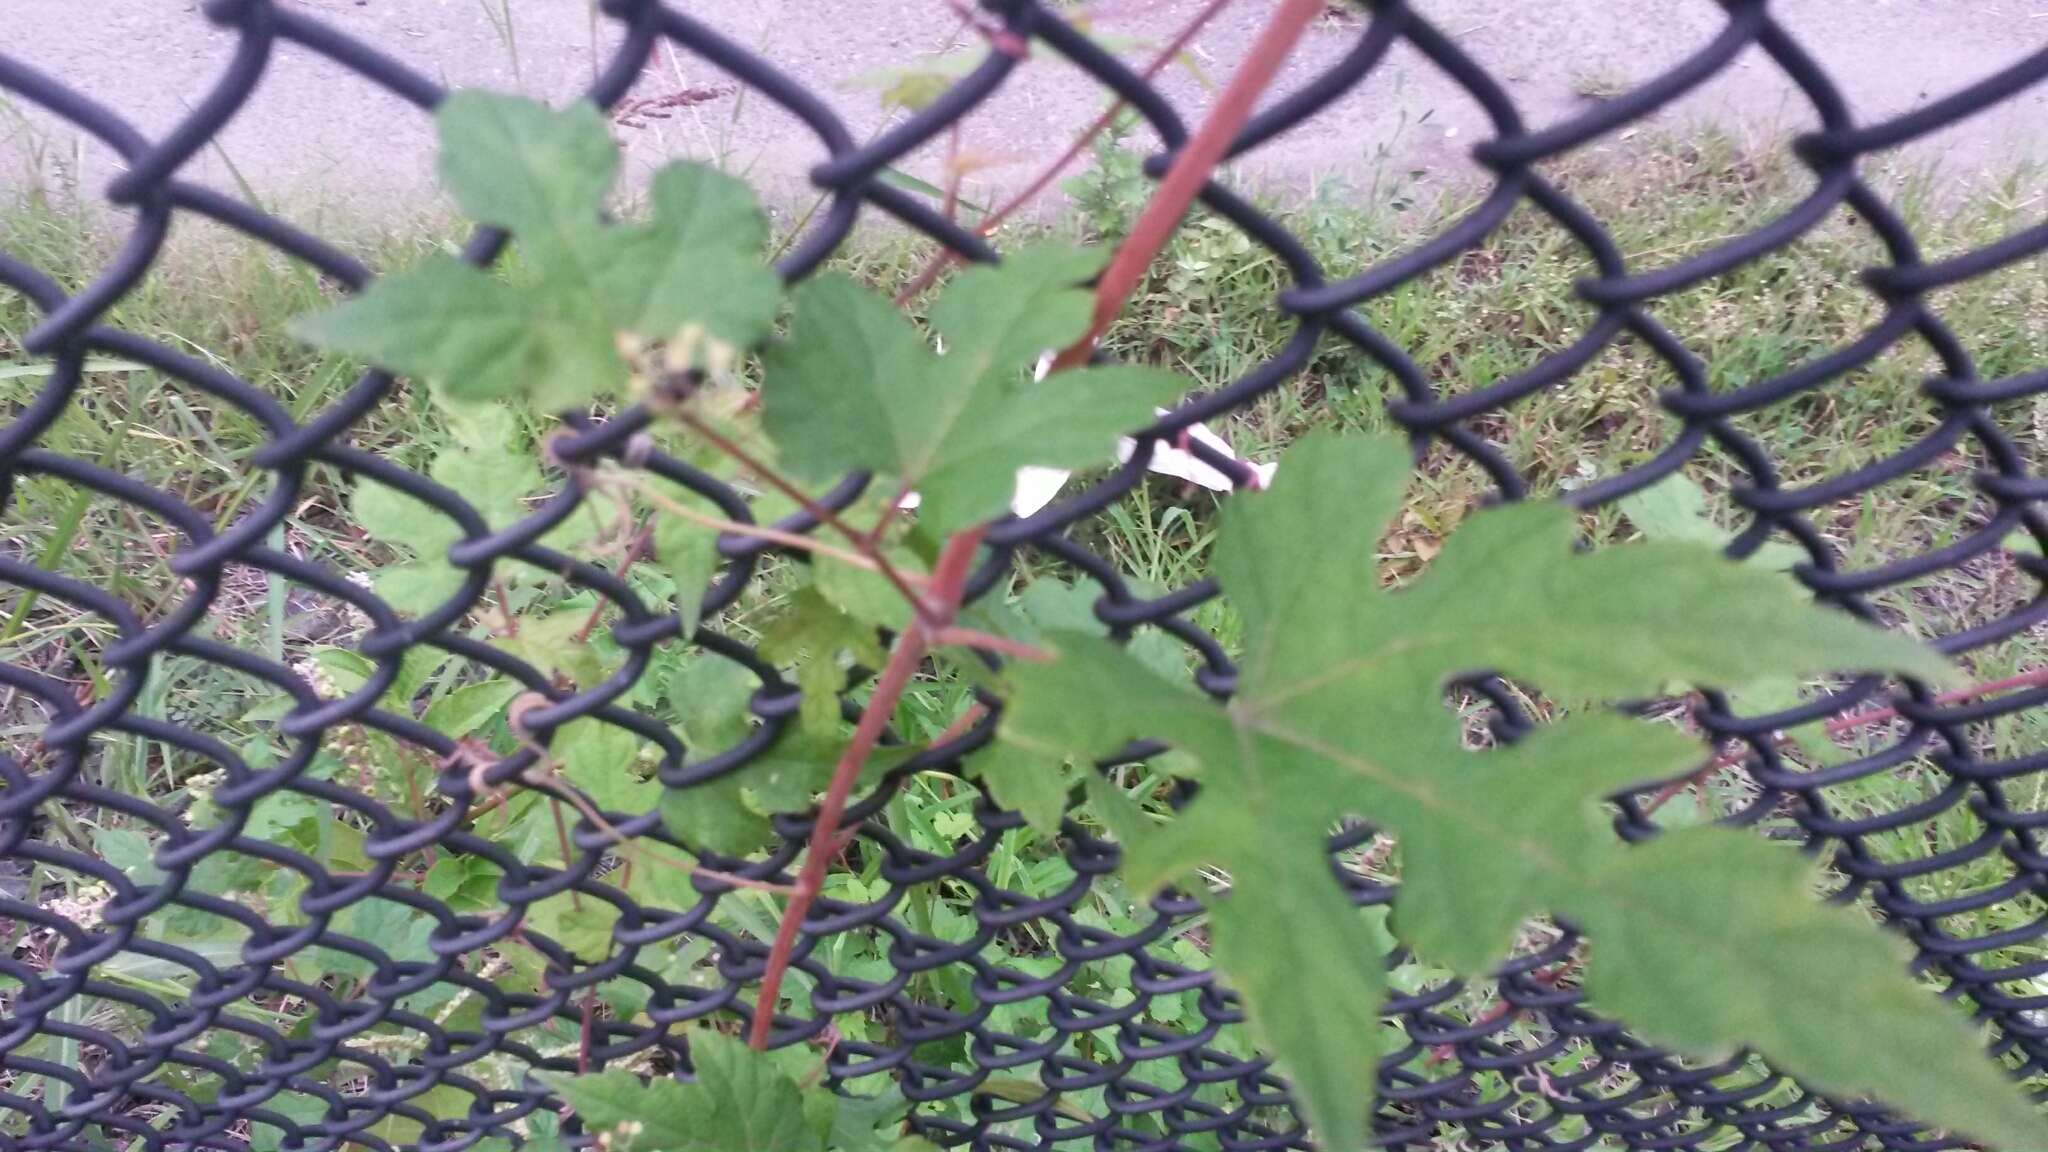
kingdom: Plantae
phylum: Tracheophyta
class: Magnoliopsida
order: Vitales
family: Vitaceae
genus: Ampelopsis
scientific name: Ampelopsis glandulosa
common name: Amur peppervine
